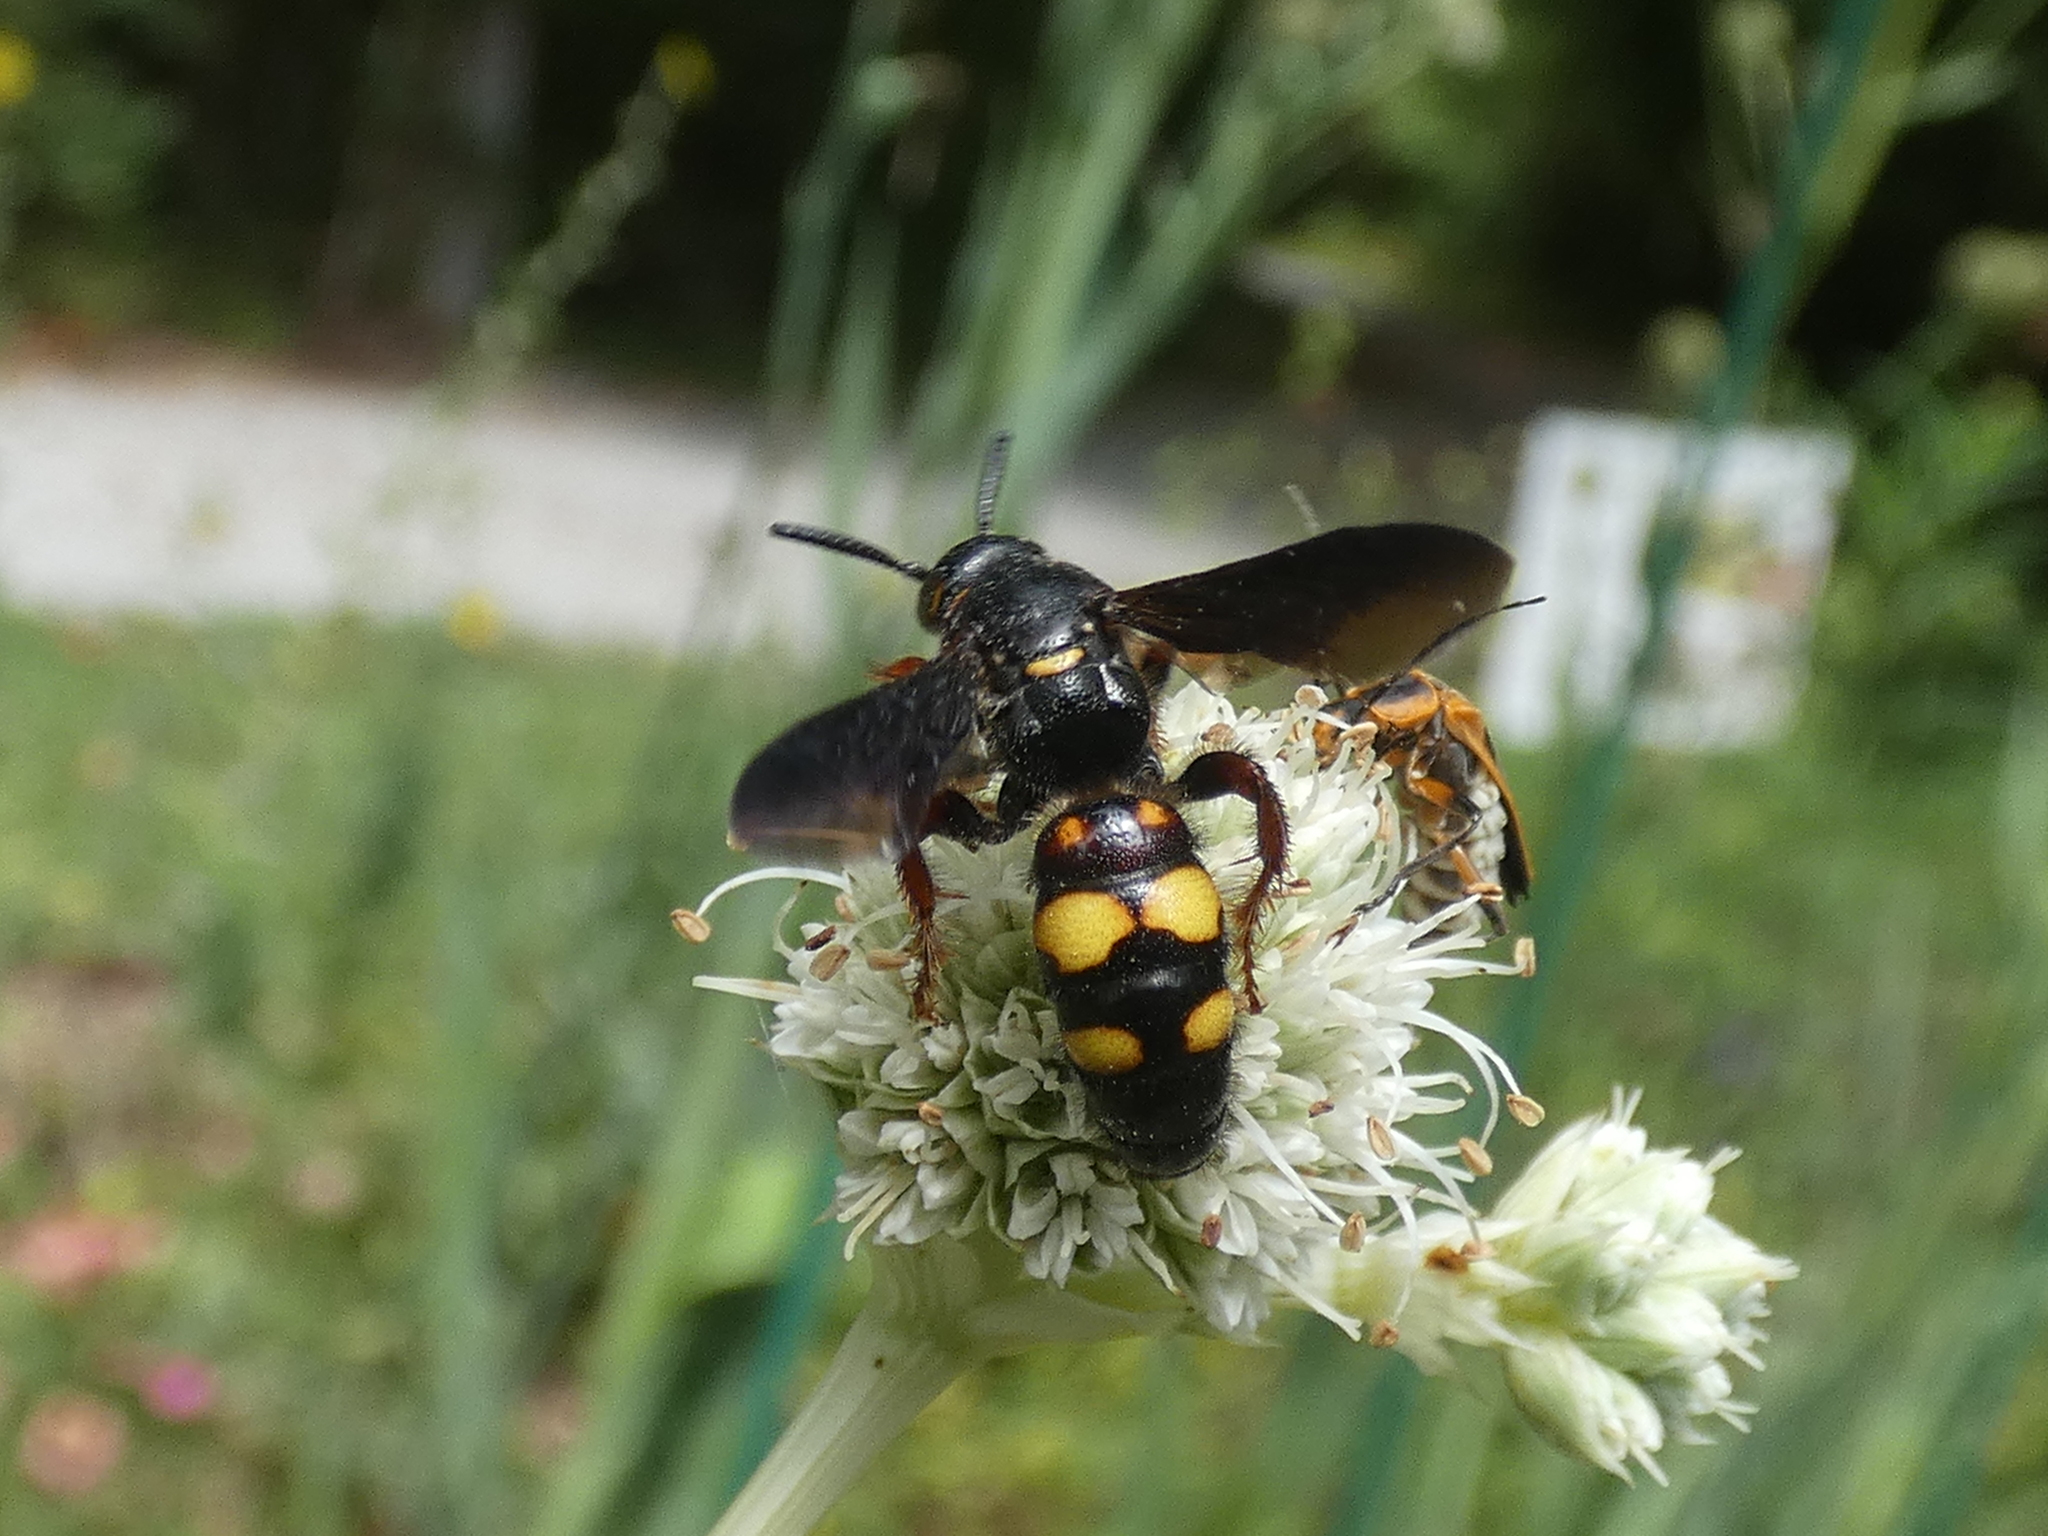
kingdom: Animalia
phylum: Arthropoda
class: Insecta
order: Hymenoptera
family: Scoliidae
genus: Scolia
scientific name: Scolia nobilitata
